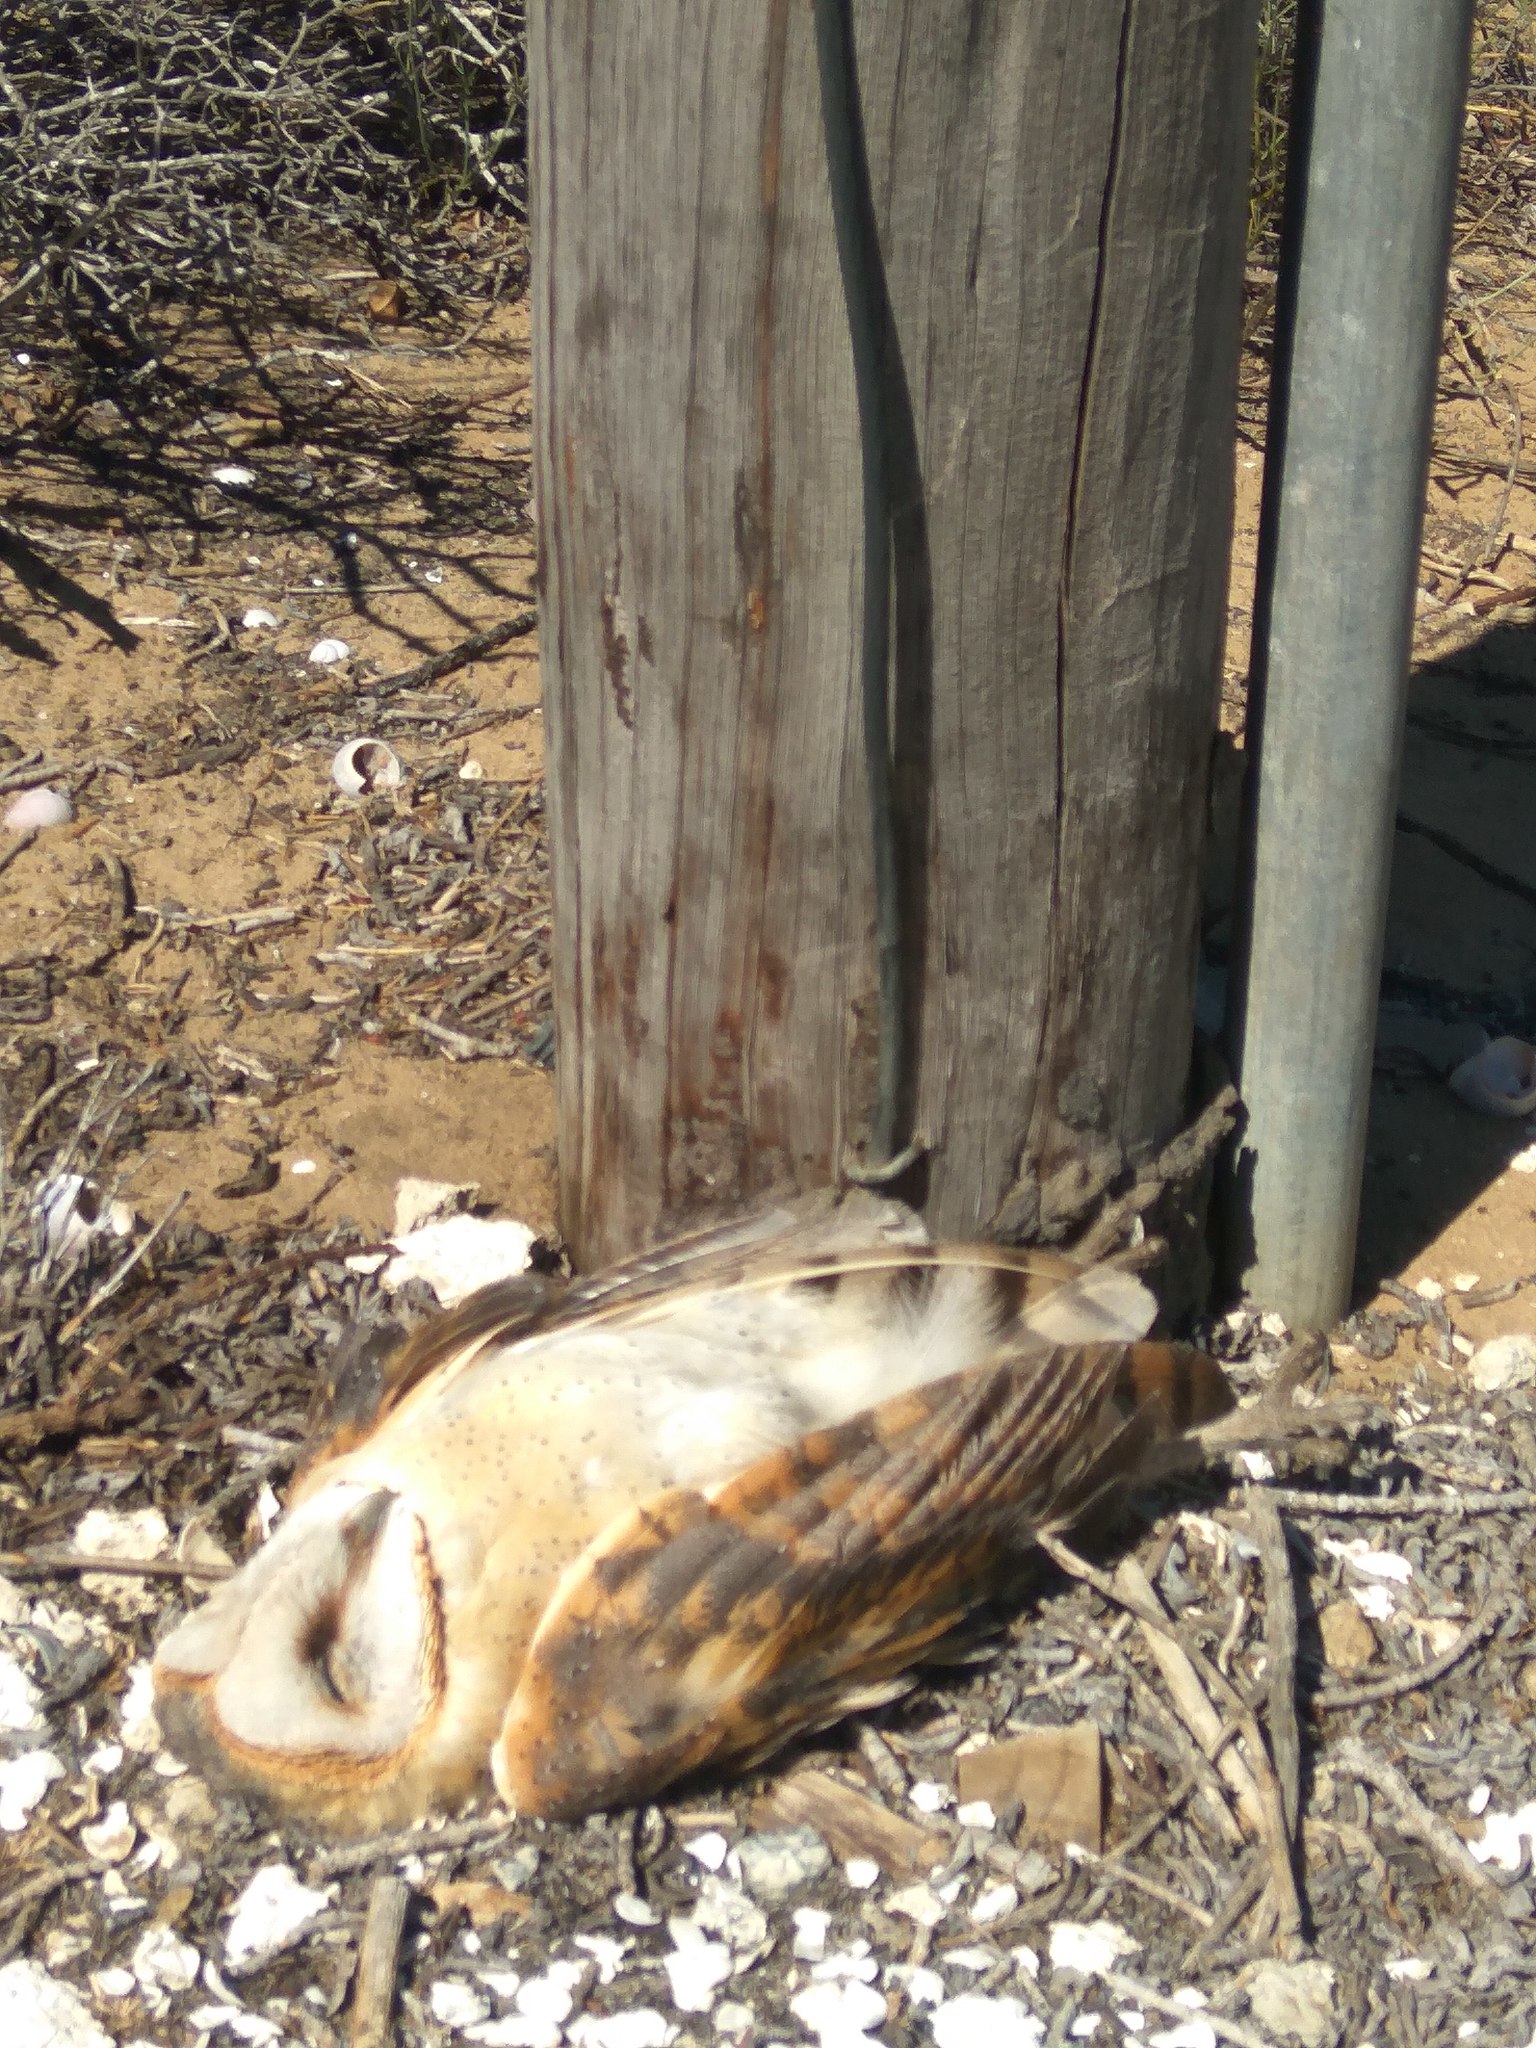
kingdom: Animalia
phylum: Chordata
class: Aves
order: Strigiformes
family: Tytonidae
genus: Tyto
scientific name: Tyto alba
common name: Barn owl
